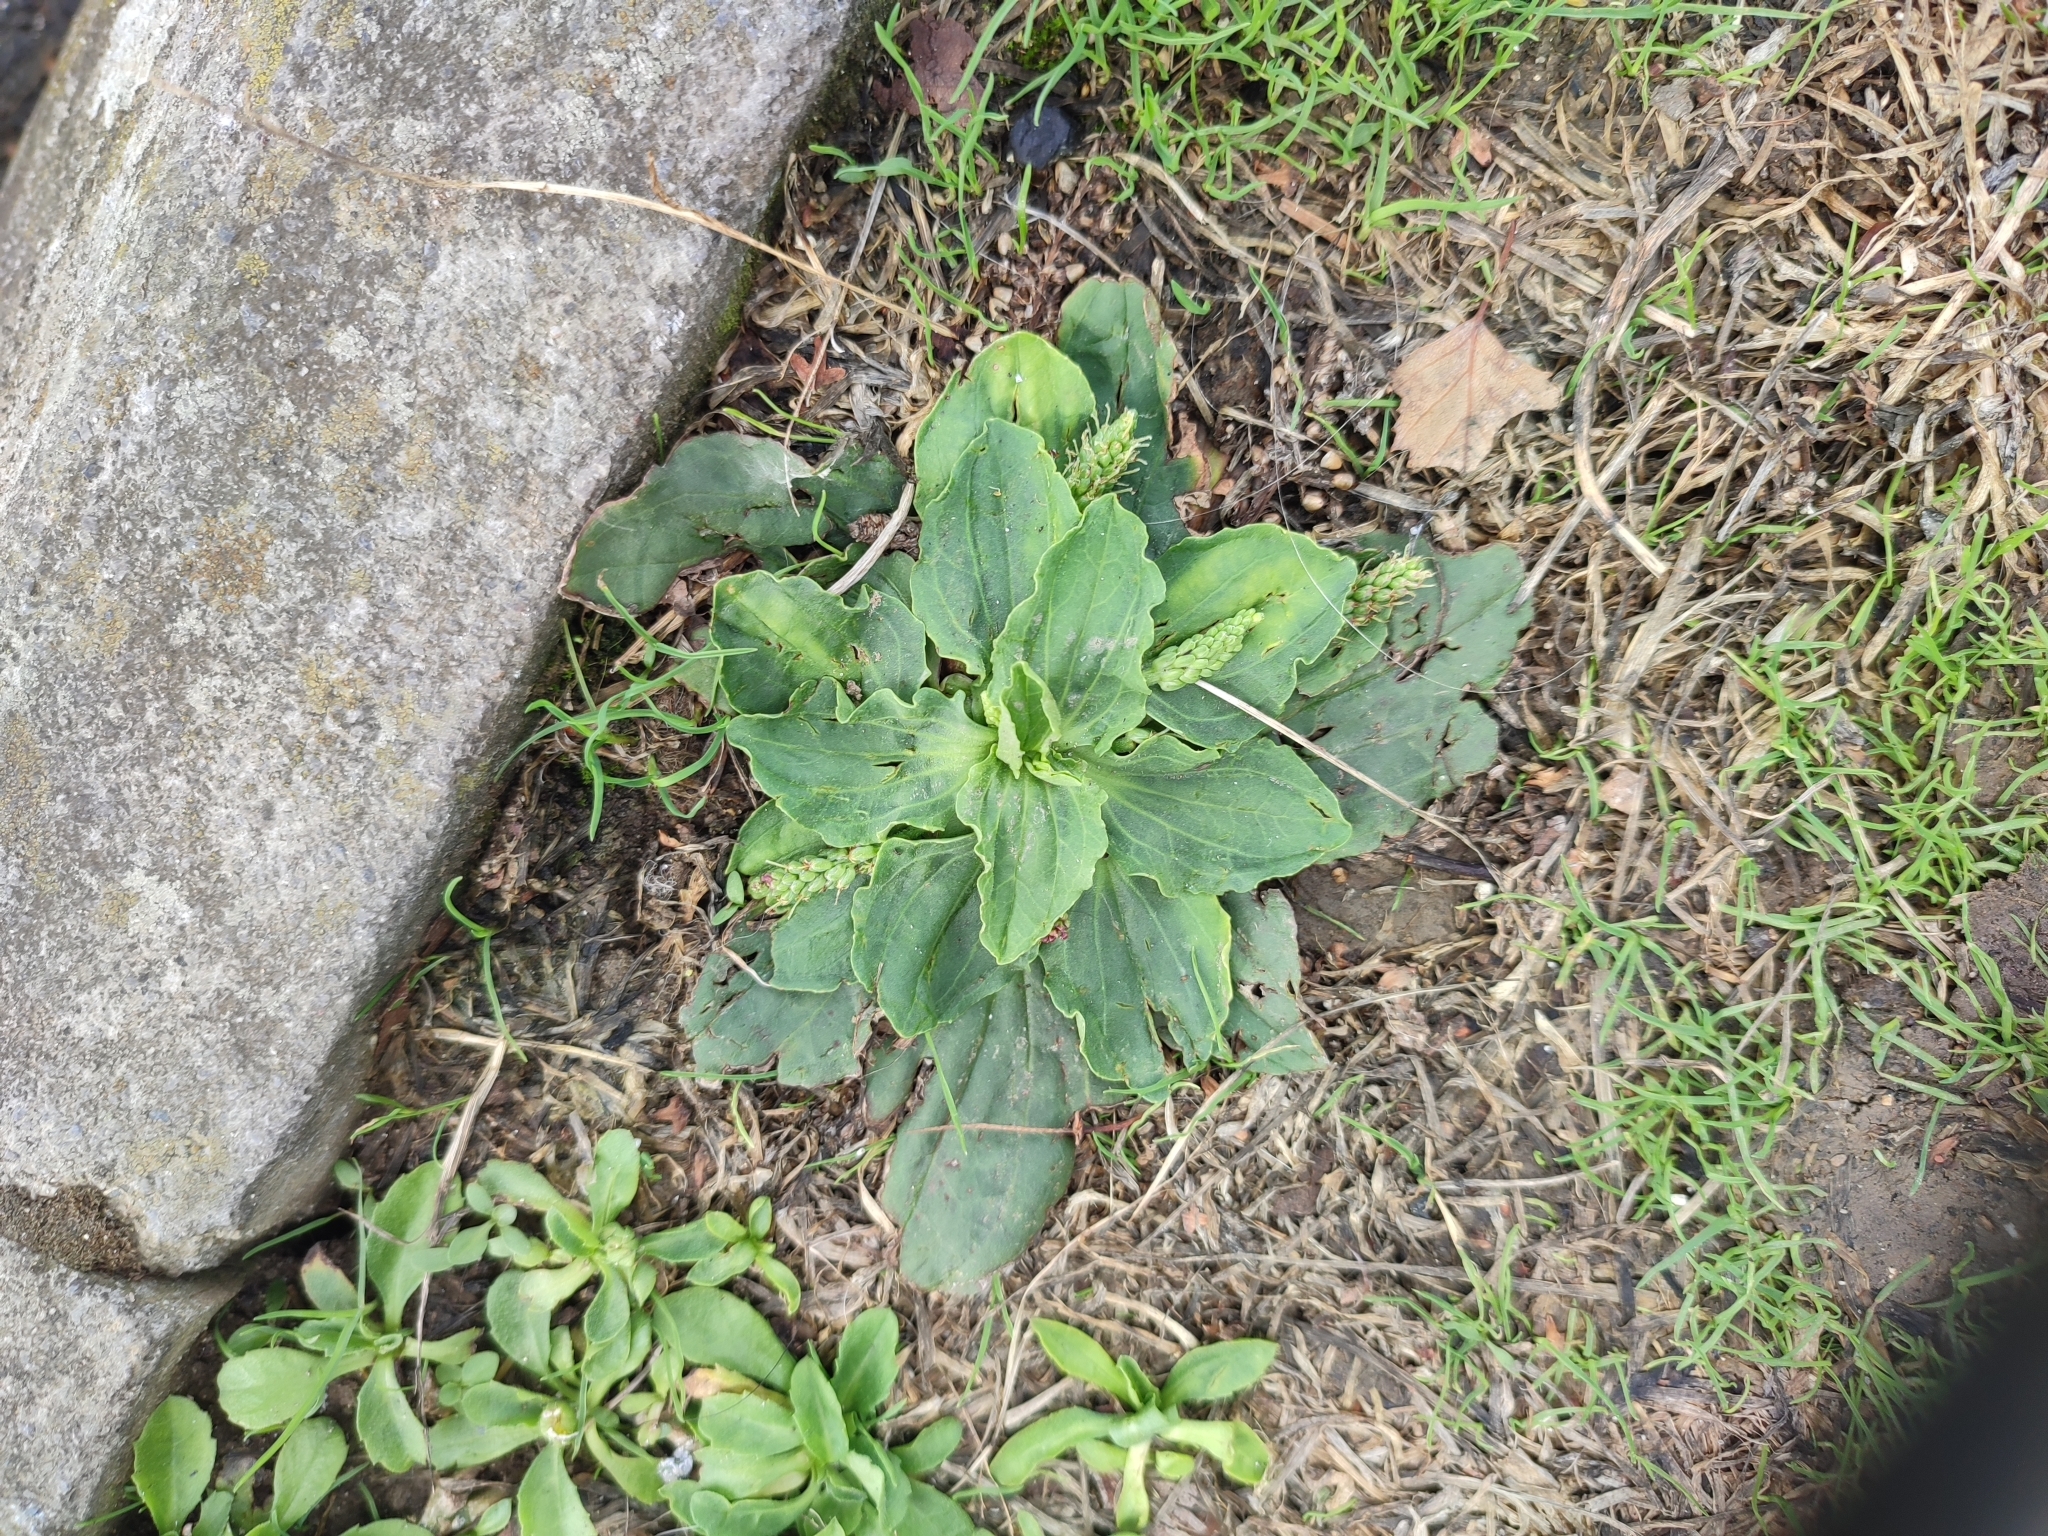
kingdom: Plantae
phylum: Tracheophyta
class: Magnoliopsida
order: Lamiales
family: Plantaginaceae
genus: Plantago
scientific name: Plantago major
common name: Common plantain
